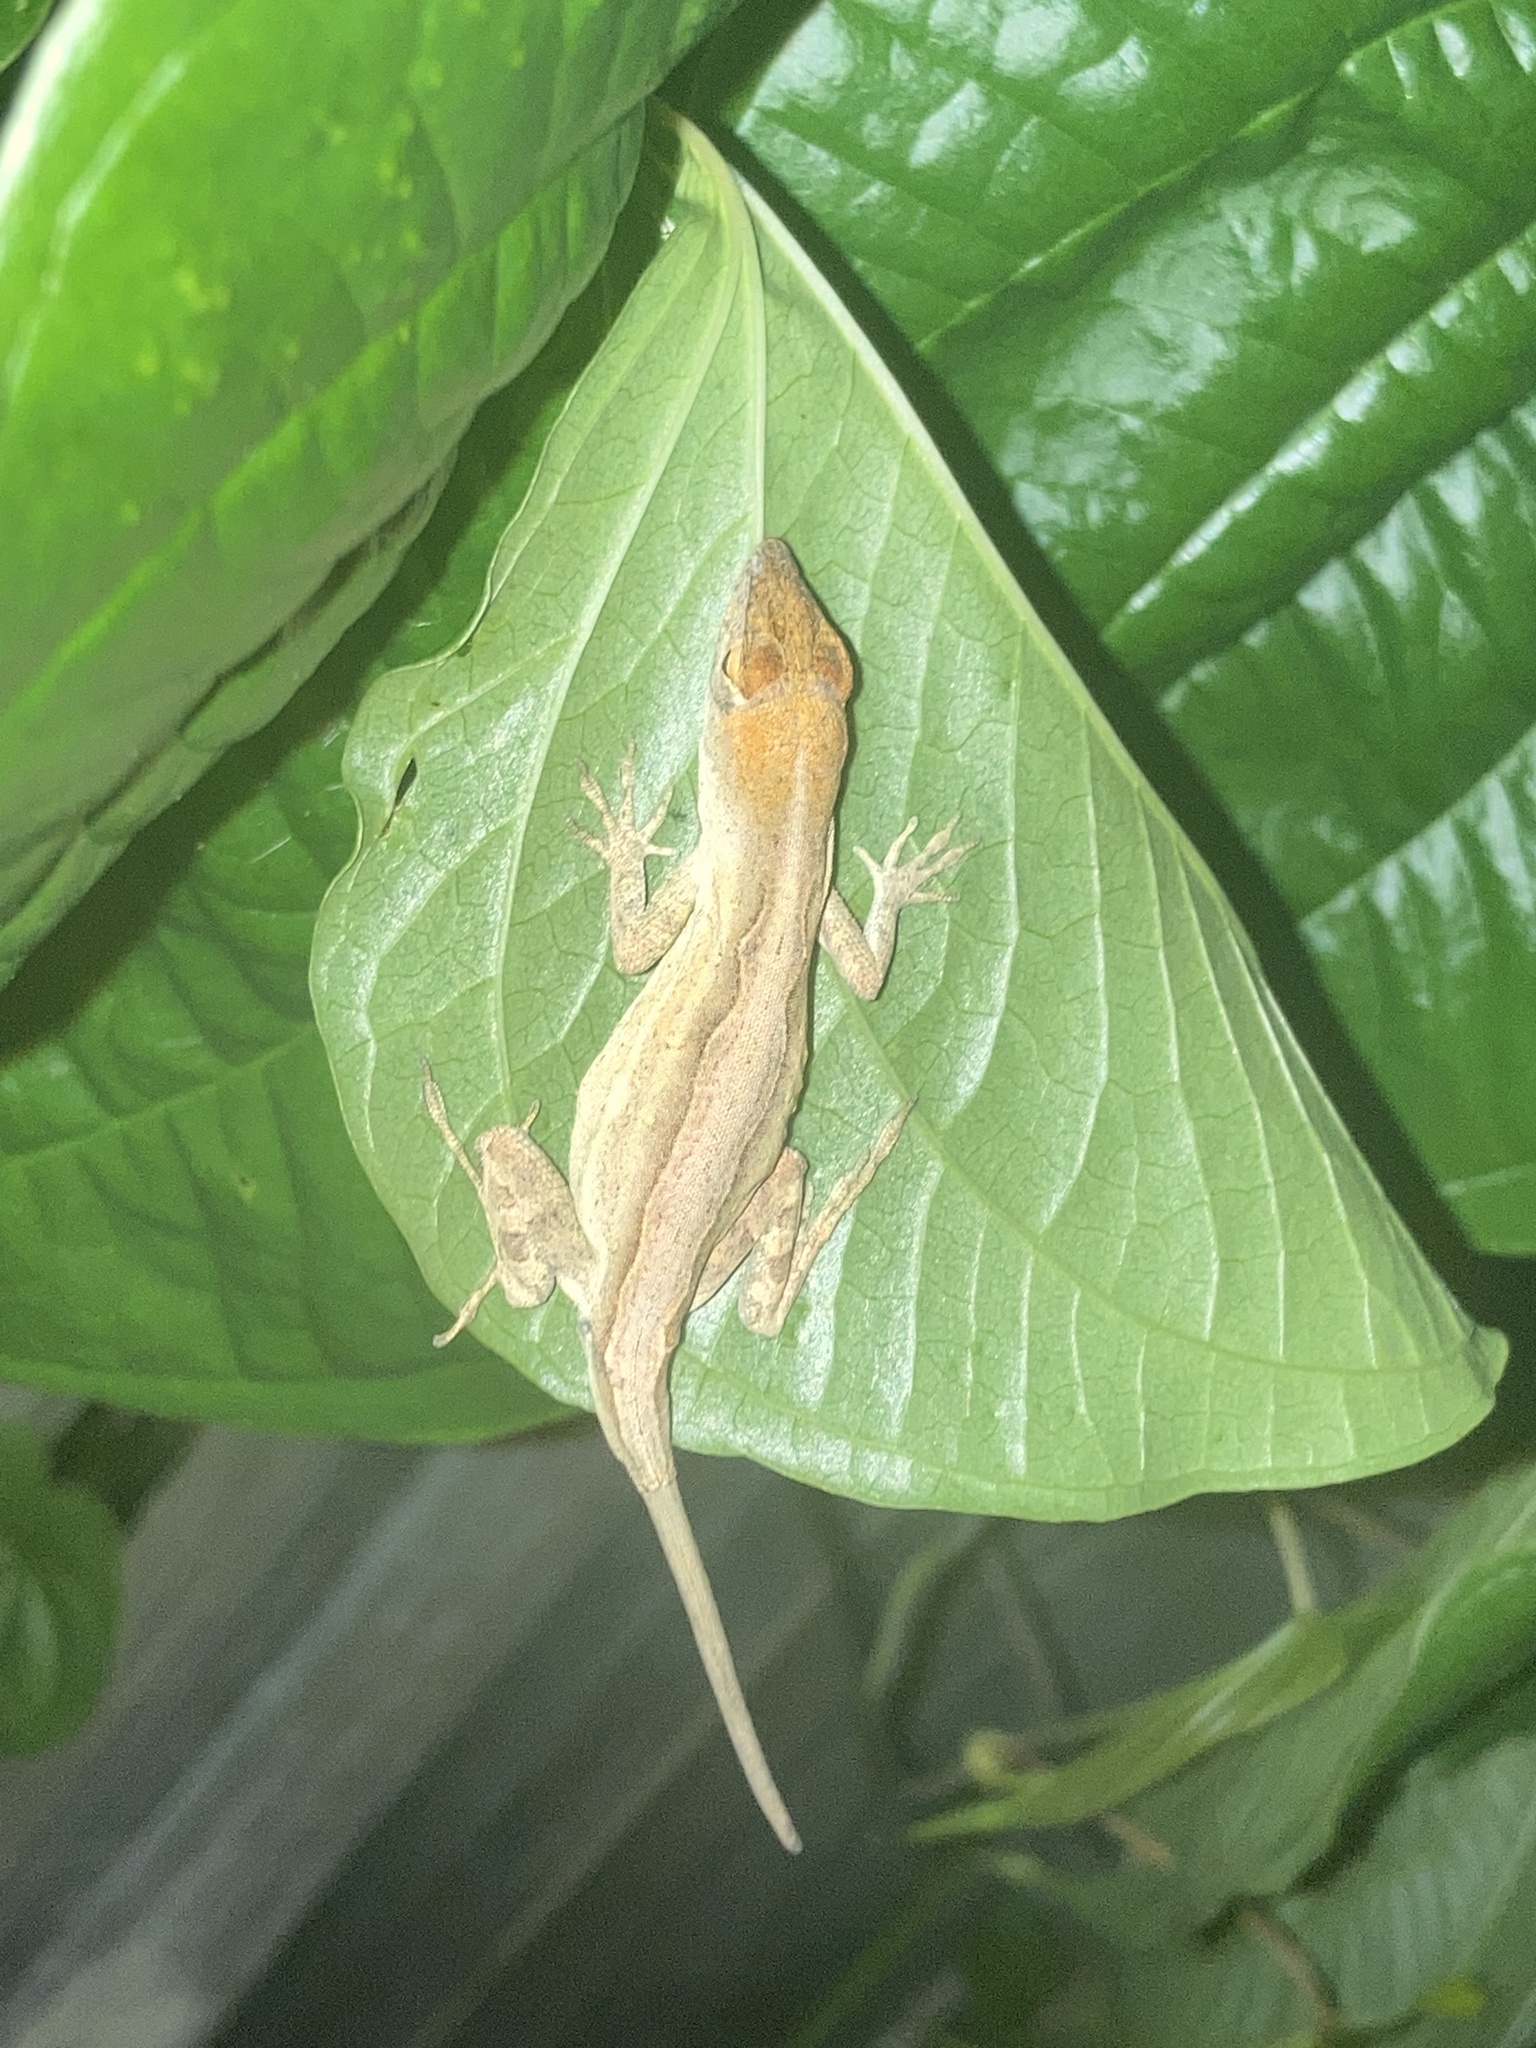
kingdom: Animalia
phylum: Chordata
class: Squamata
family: Dactyloidae
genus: Anolis
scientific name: Anolis sagrei
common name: Brown anole
